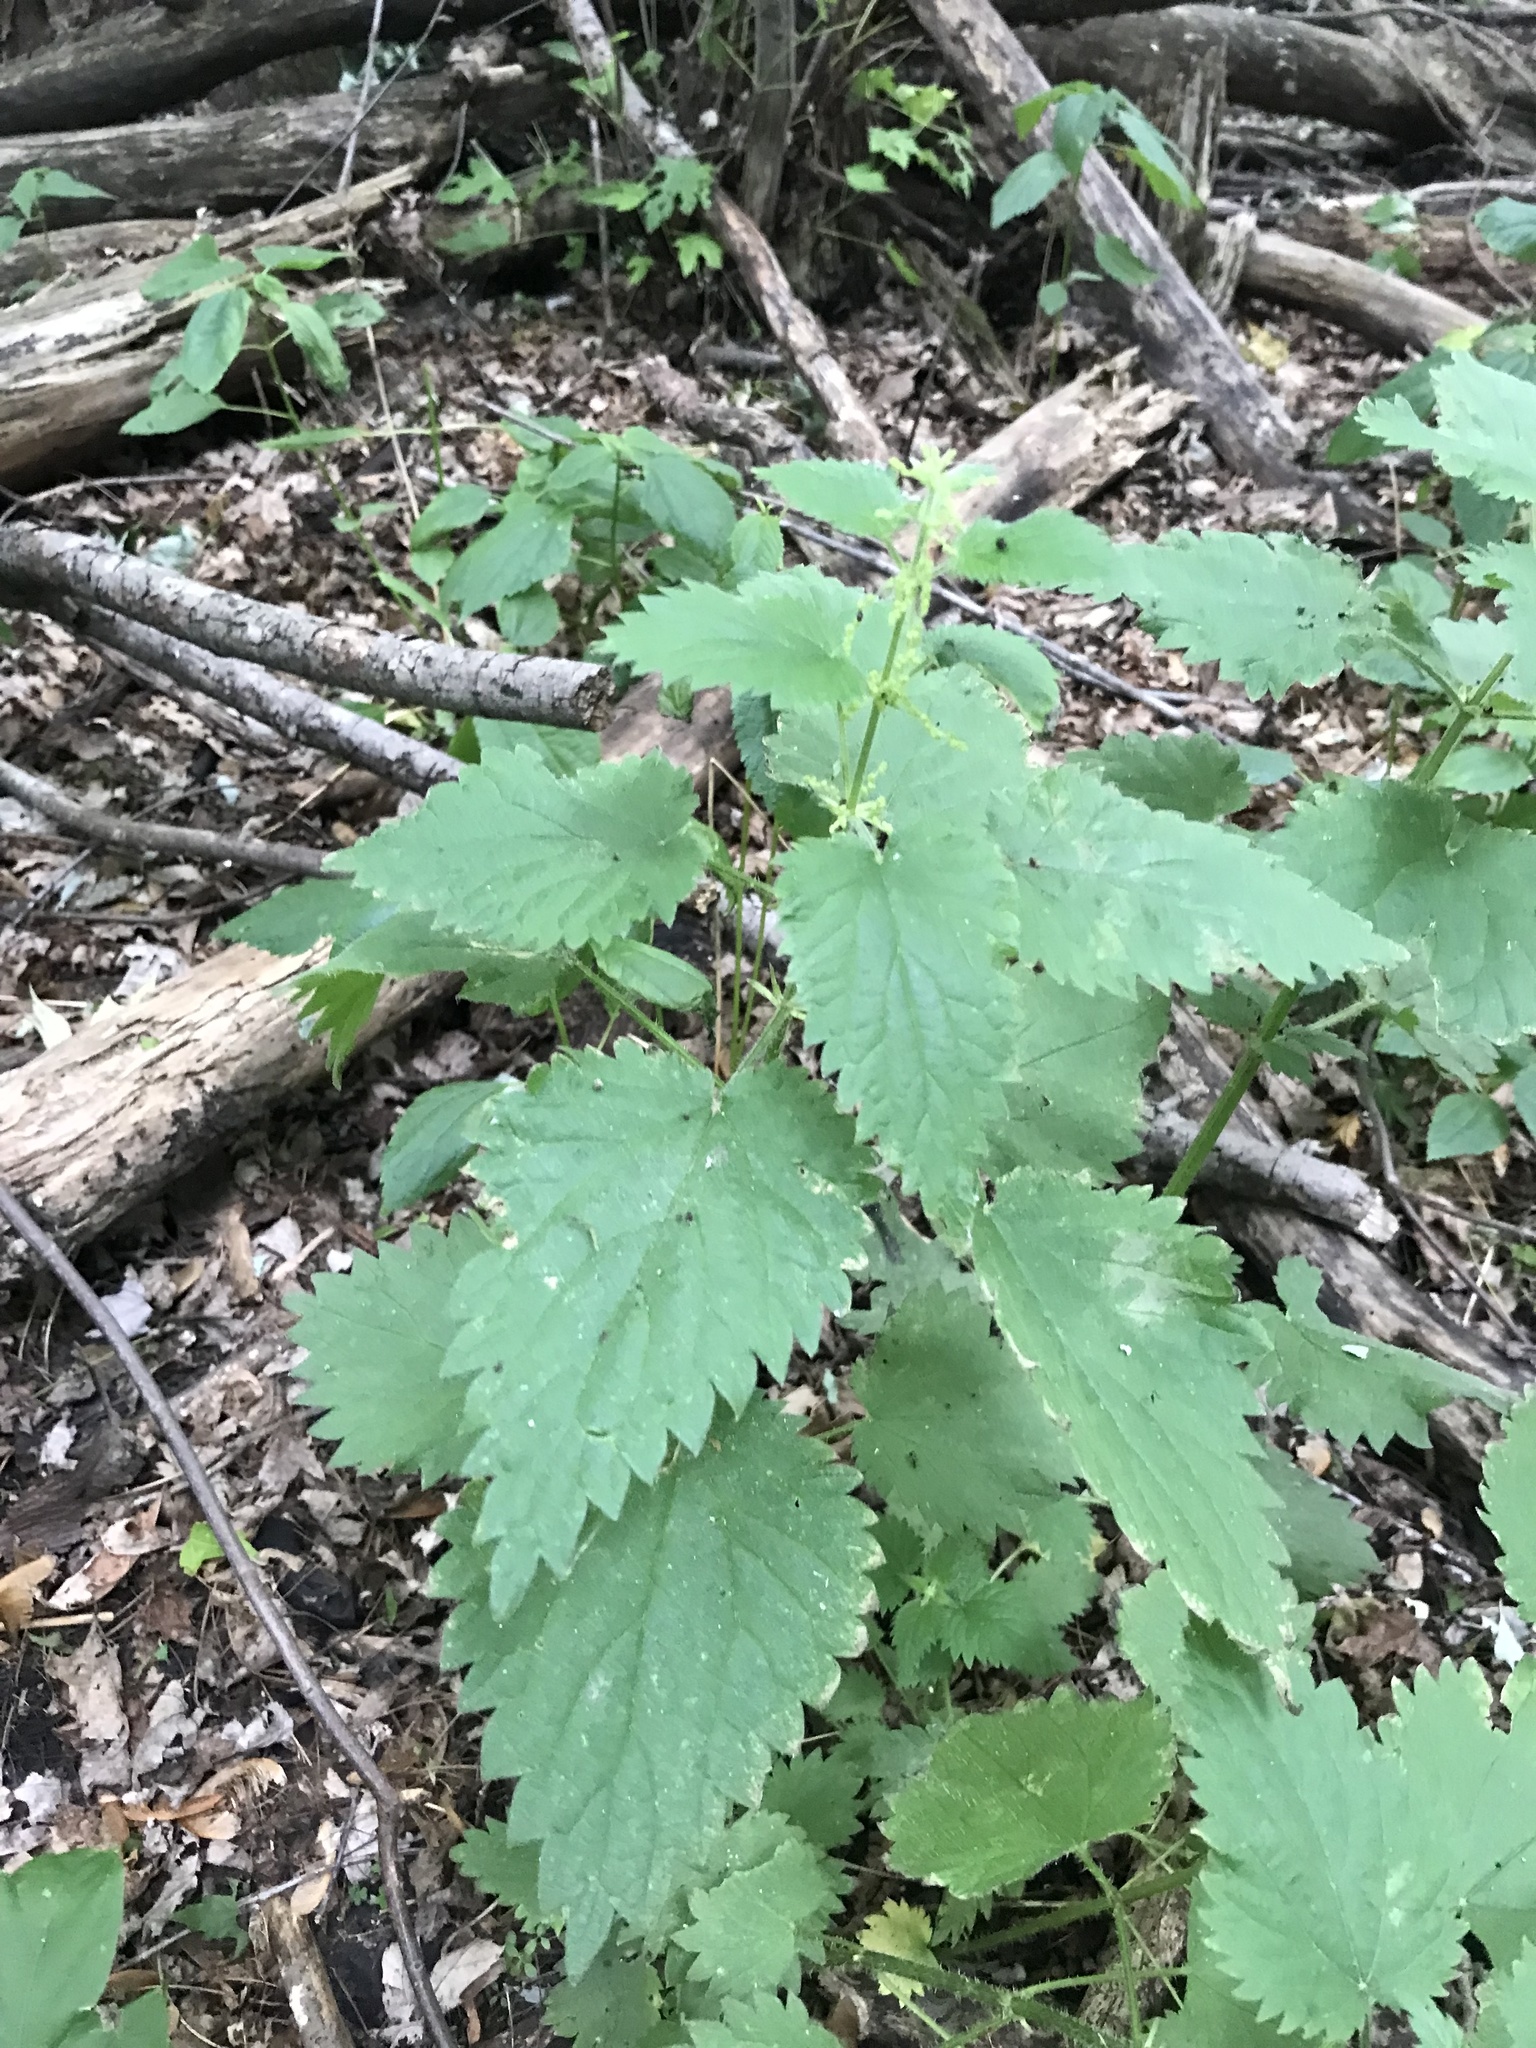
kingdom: Plantae
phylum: Tracheophyta
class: Magnoliopsida
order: Rosales
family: Urticaceae
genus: Urtica
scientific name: Urtica dioica
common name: Common nettle
